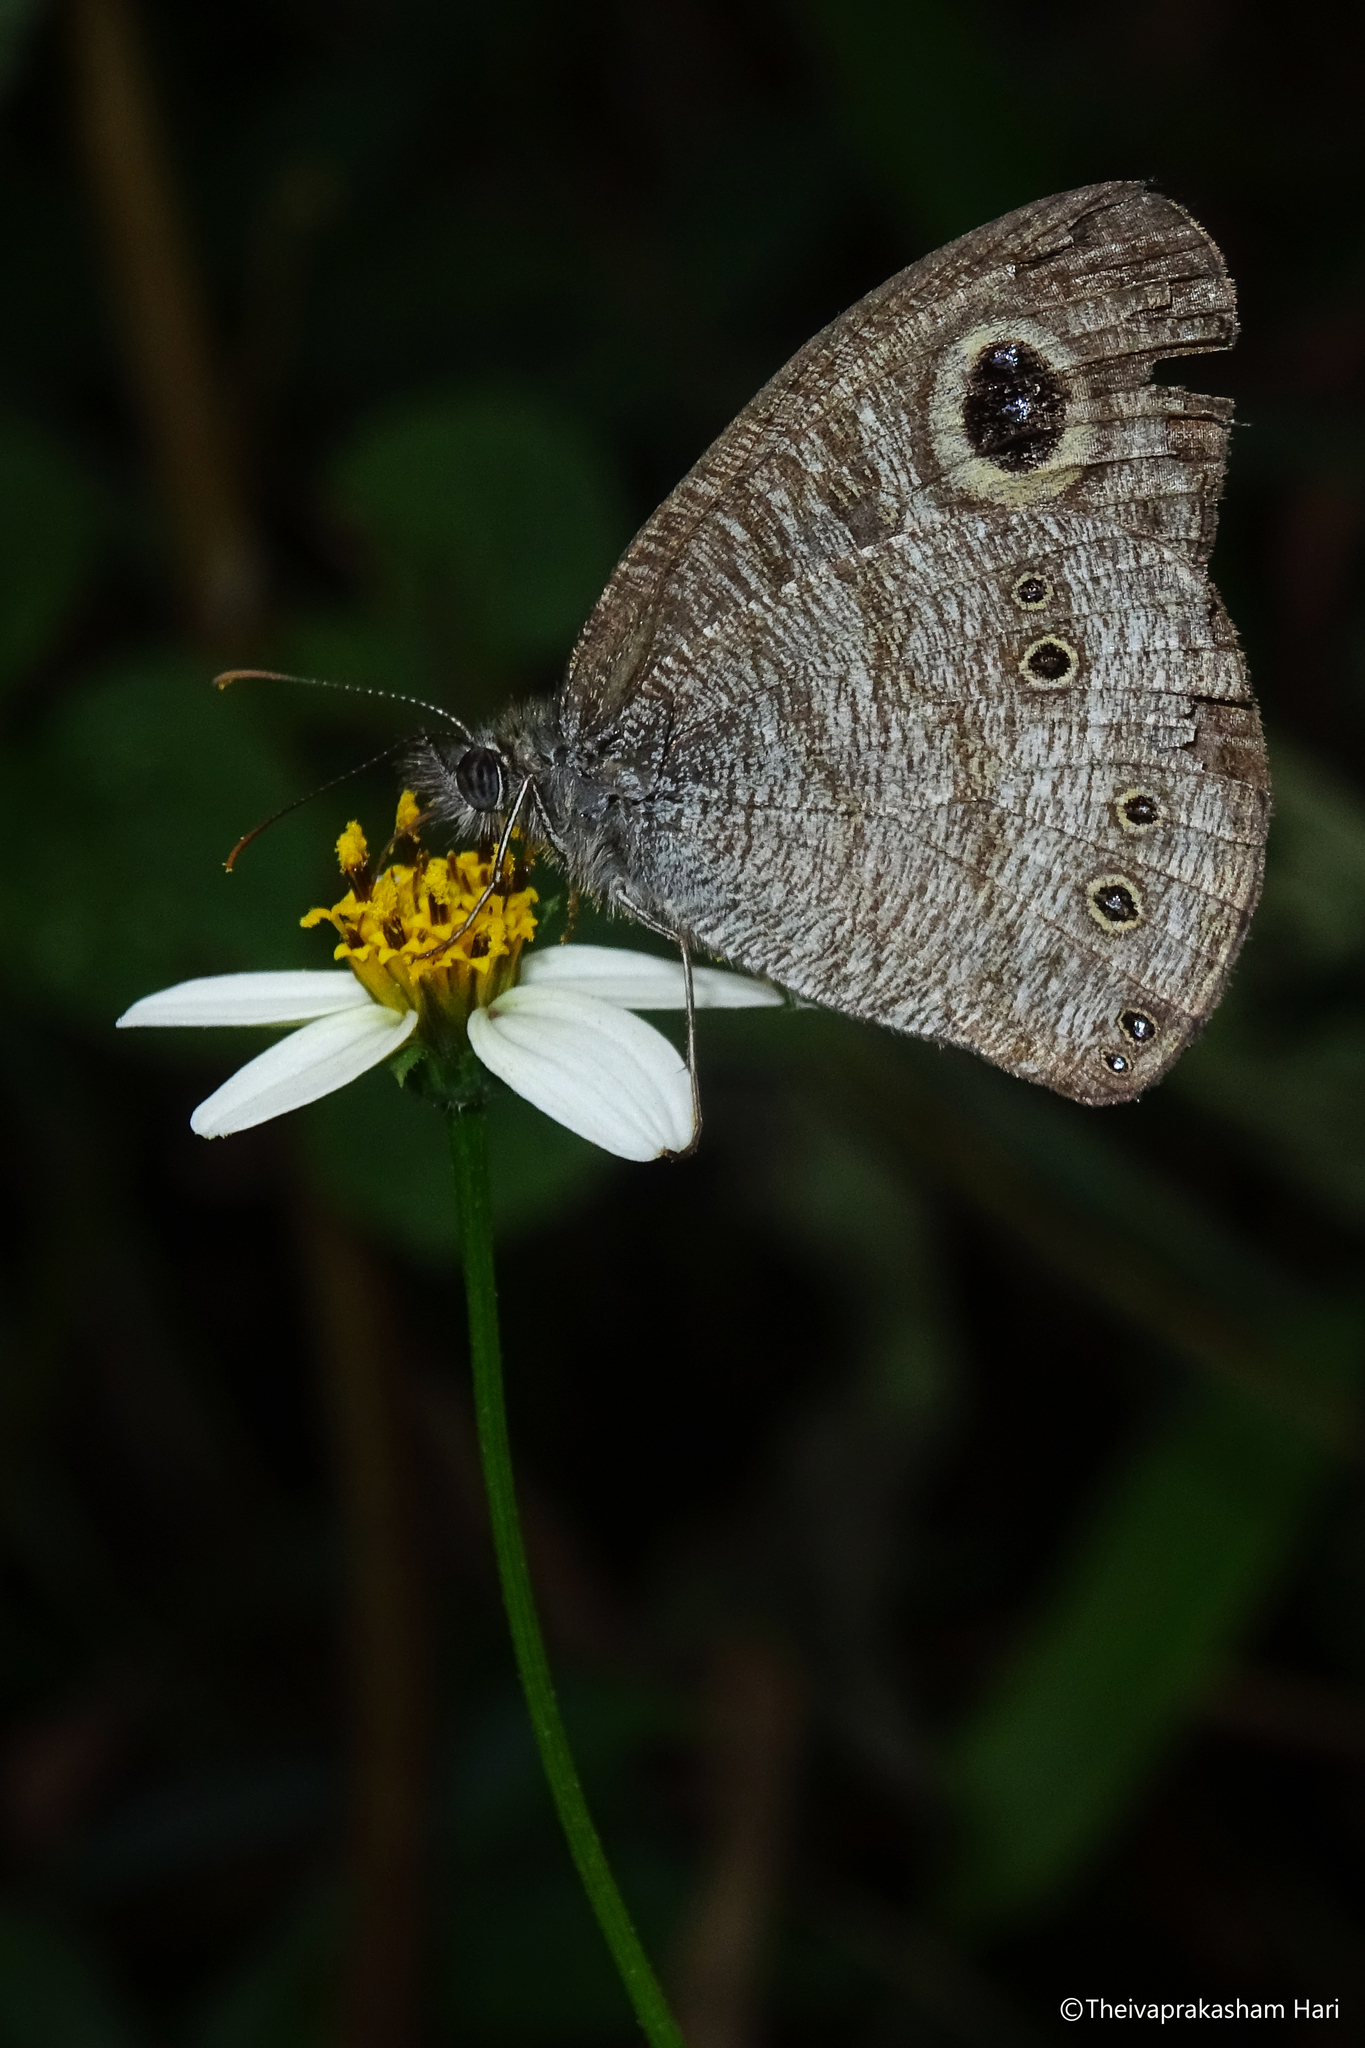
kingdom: Animalia
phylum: Arthropoda
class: Insecta
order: Lepidoptera
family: Nymphalidae
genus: Ypthima
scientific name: Ypthima baldus
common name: Common five-ring
